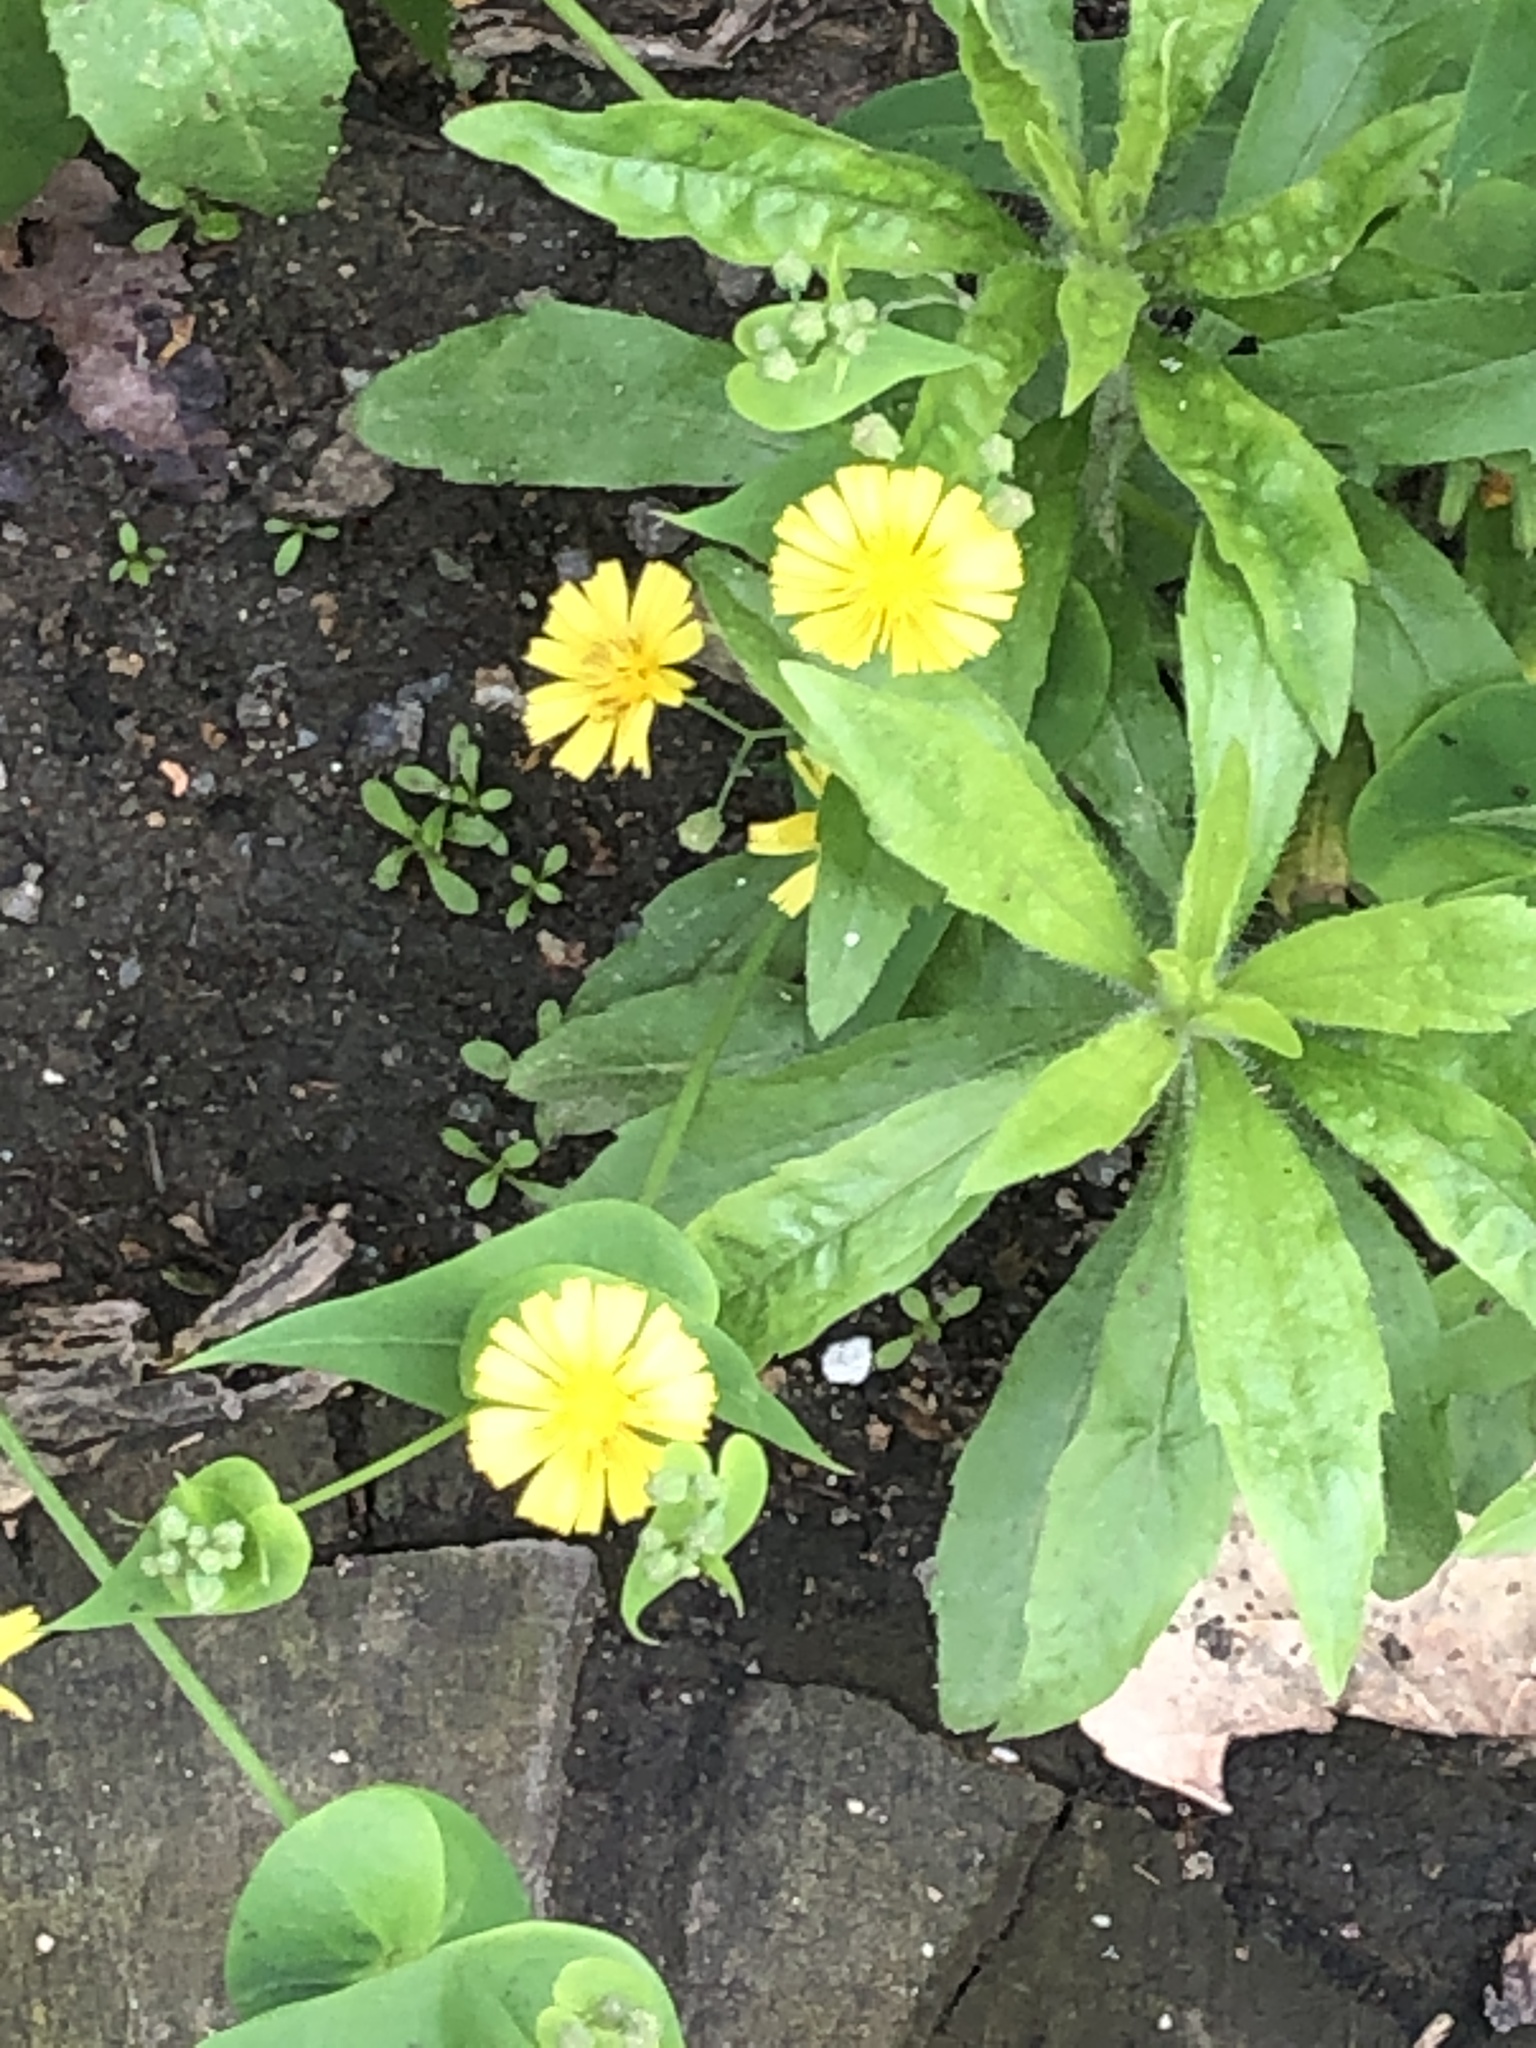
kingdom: Plantae
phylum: Tracheophyta
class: Magnoliopsida
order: Asterales
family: Asteraceae
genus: Crepidiastrum
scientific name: Crepidiastrum sonchifolium
